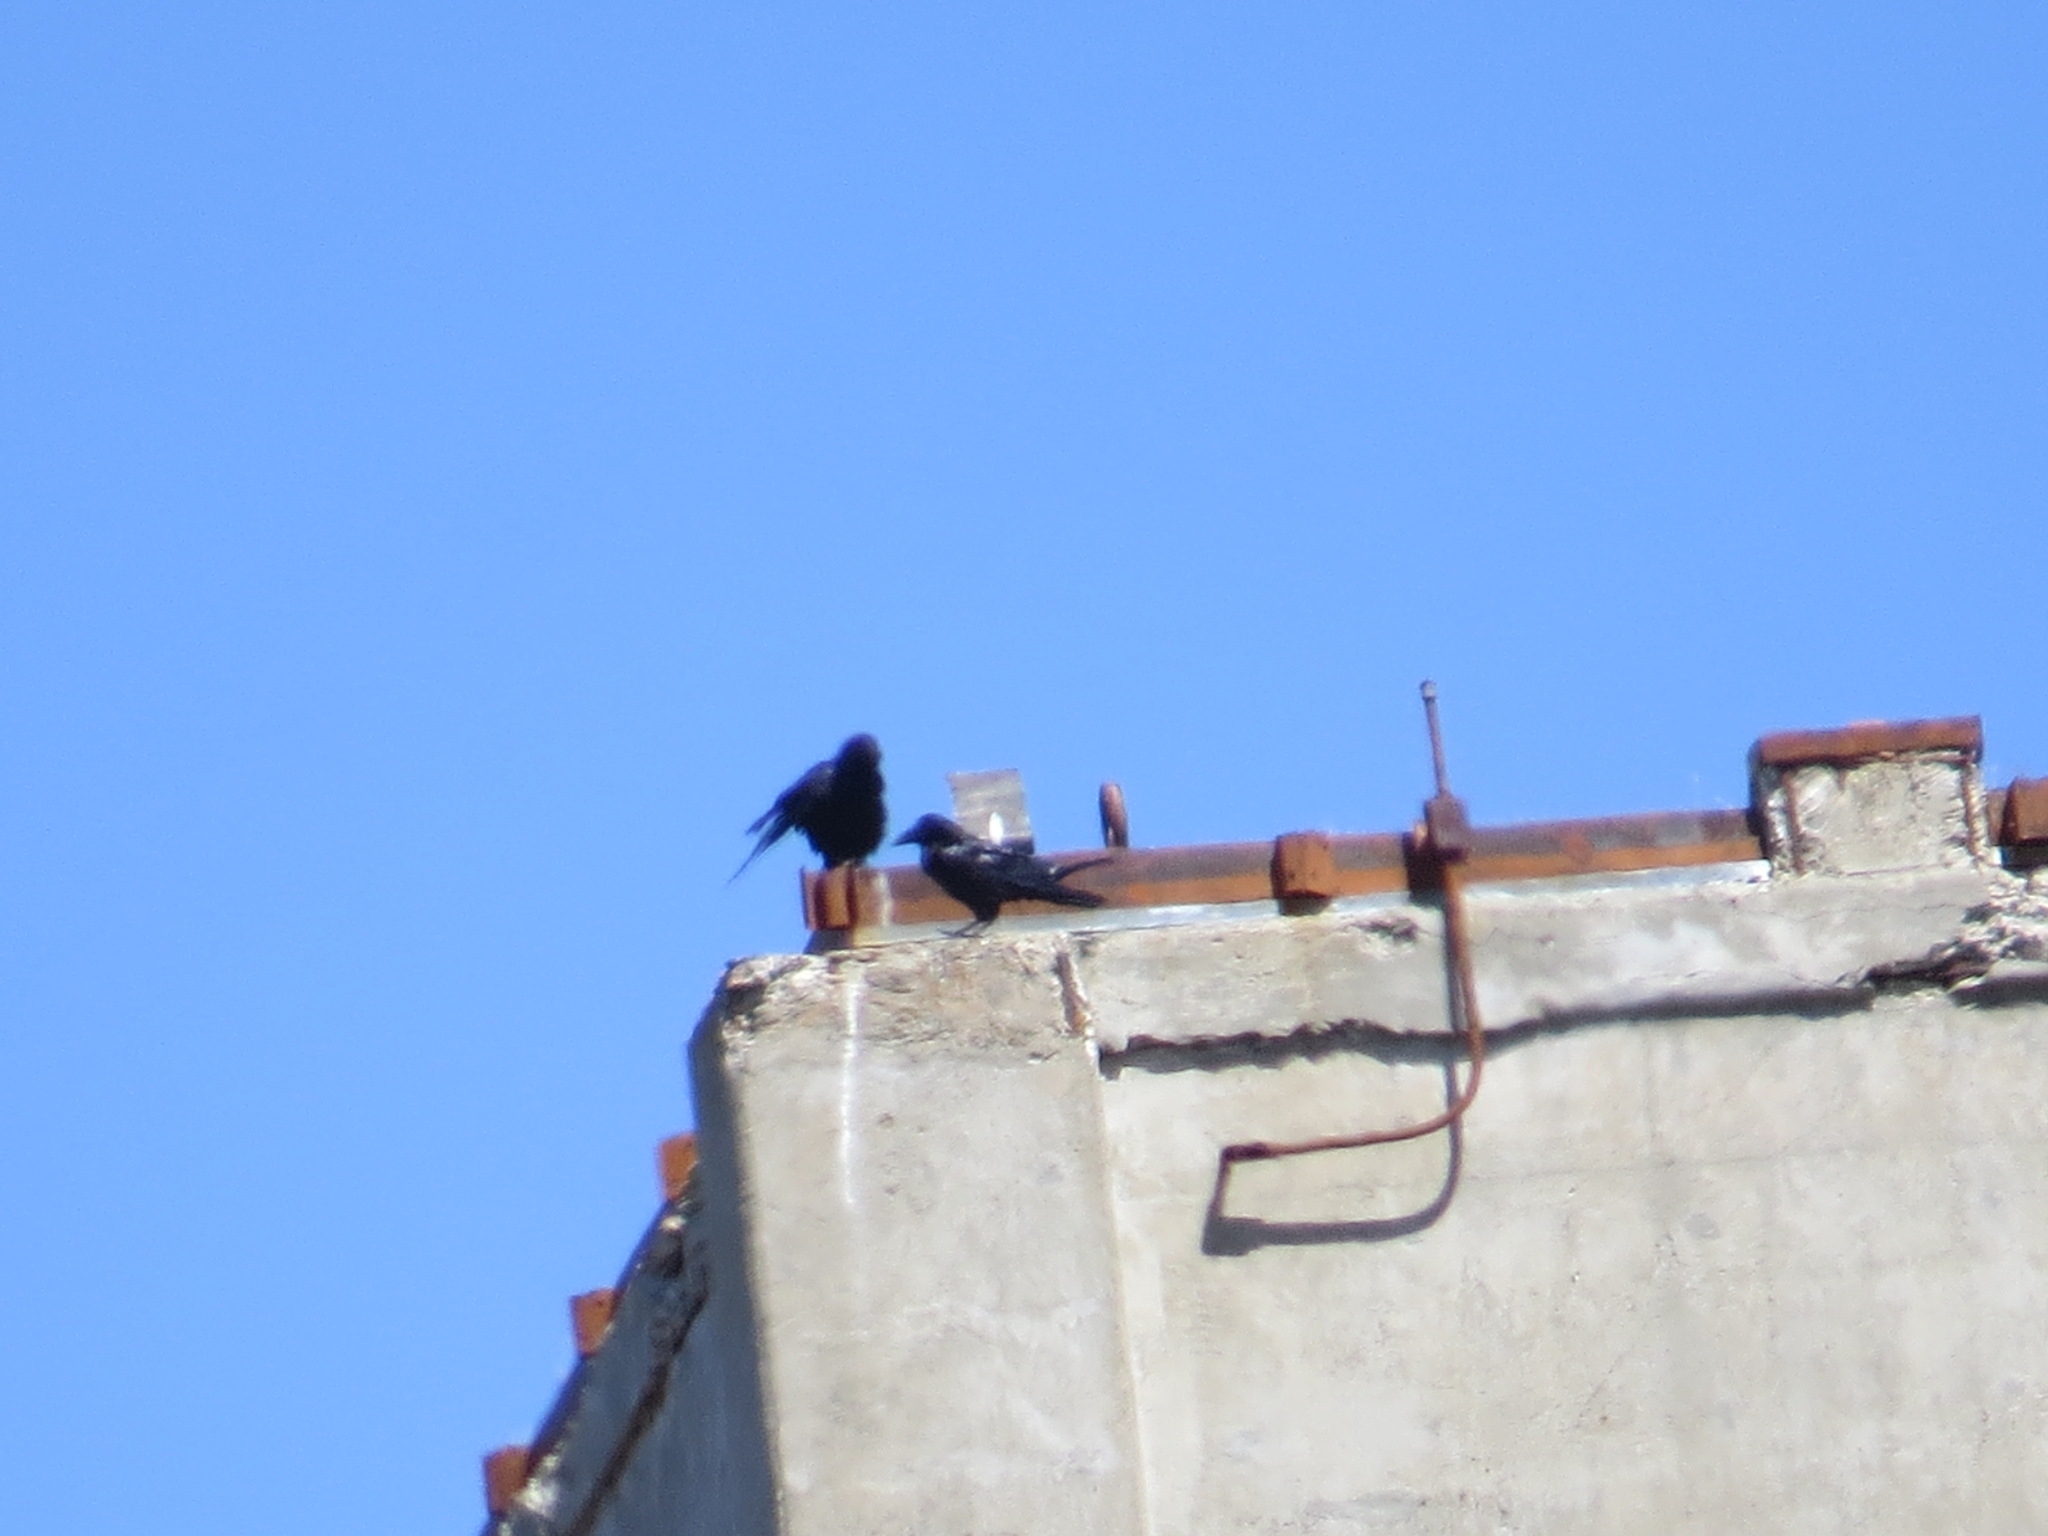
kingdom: Animalia
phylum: Chordata
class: Aves
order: Passeriformes
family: Corvidae
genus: Corvus
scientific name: Corvus corax
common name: Common raven
